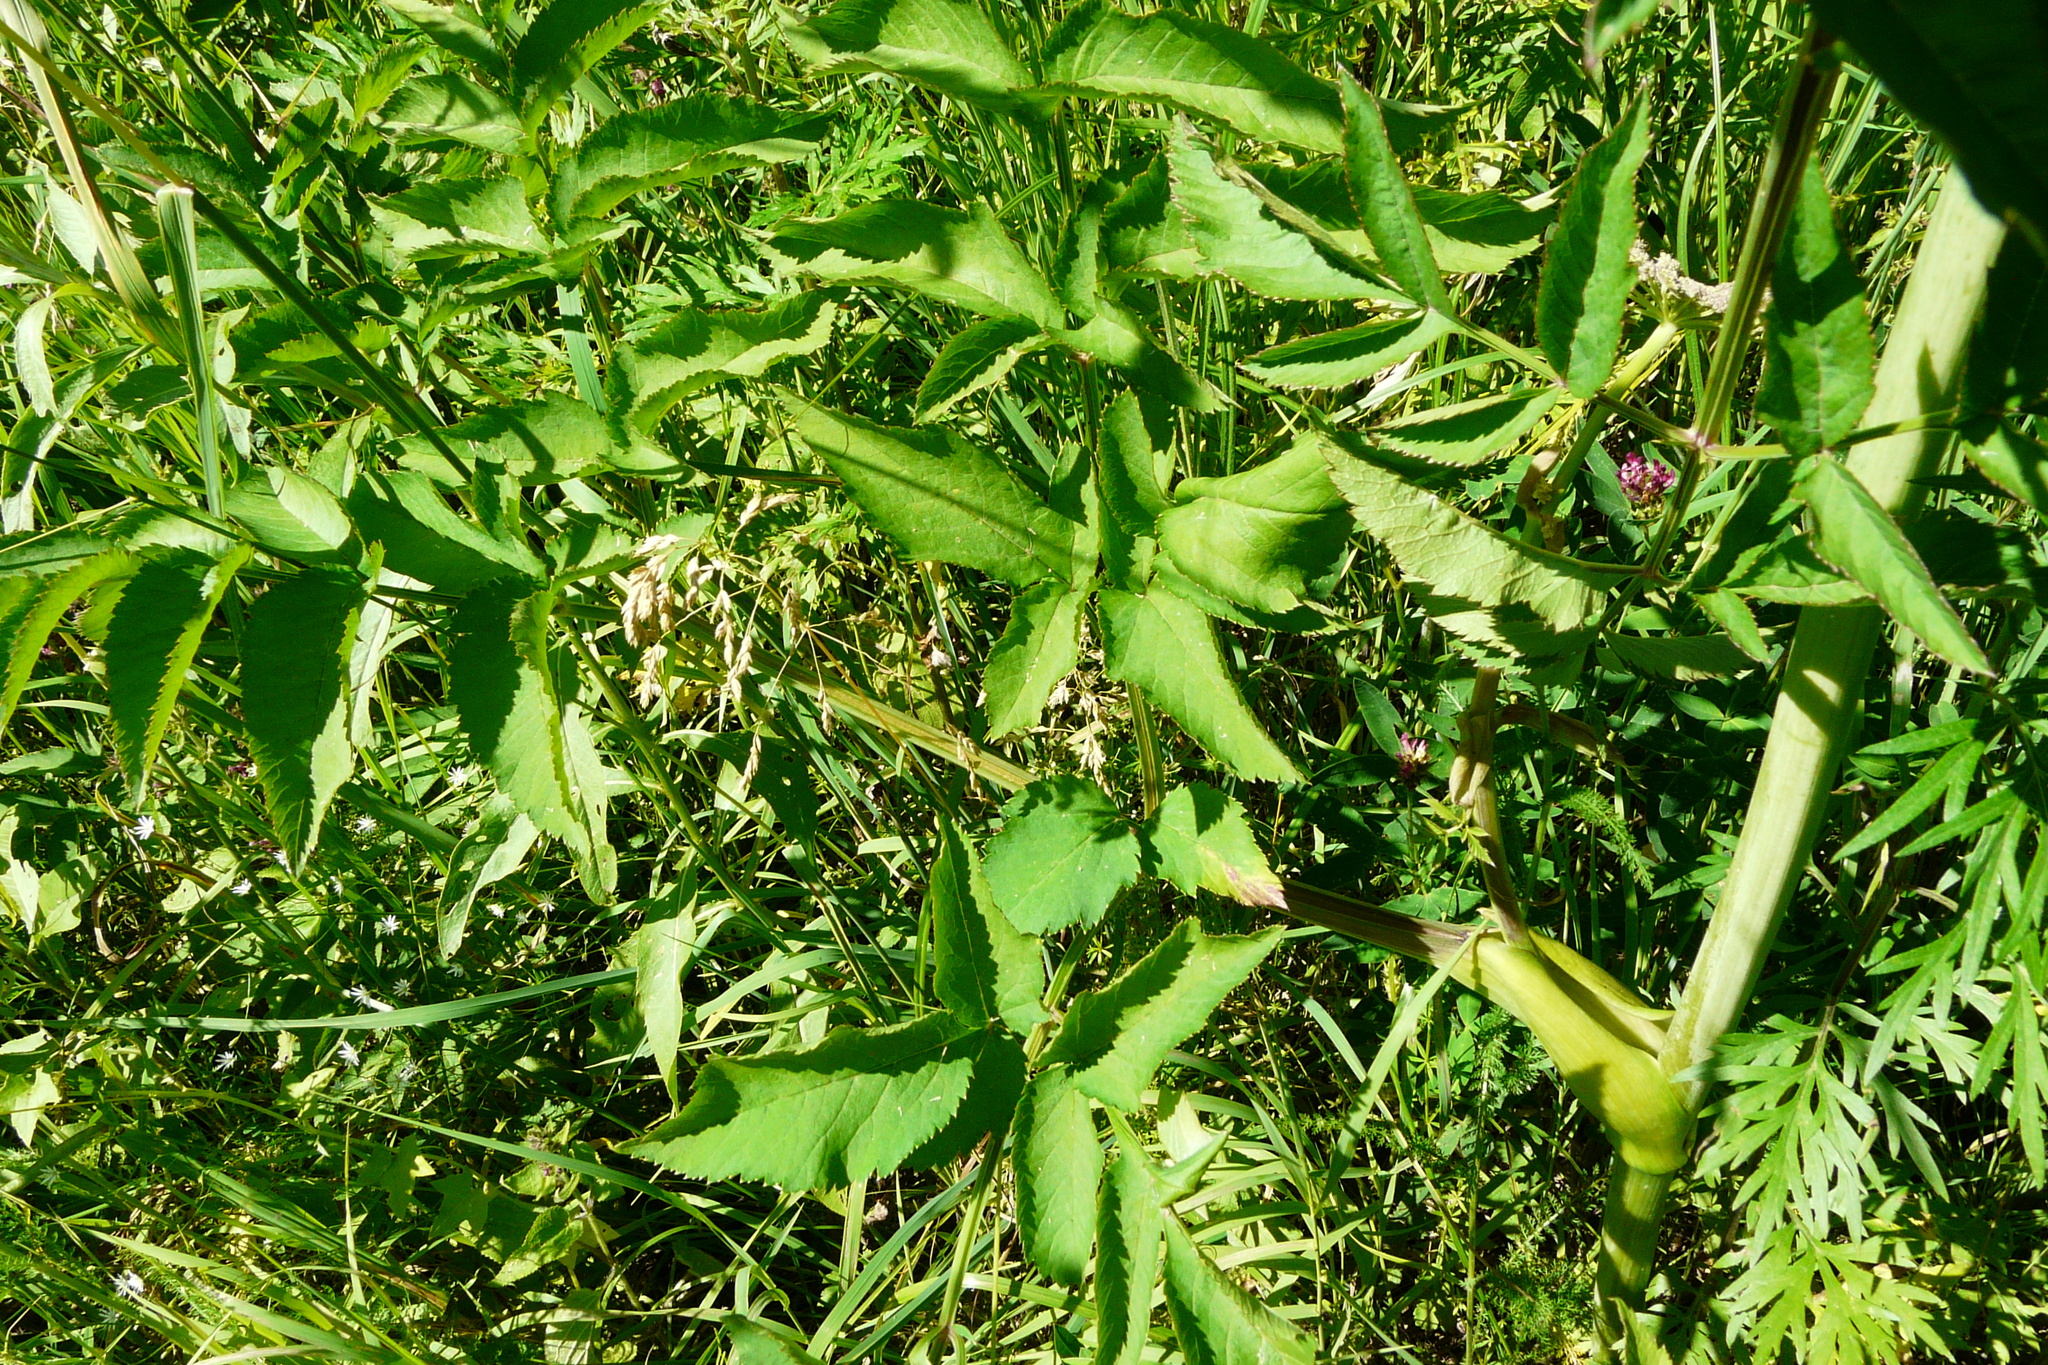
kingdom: Plantae
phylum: Tracheophyta
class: Magnoliopsida
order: Apiales
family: Apiaceae
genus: Angelica
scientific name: Angelica sylvestris
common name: Wild angelica
